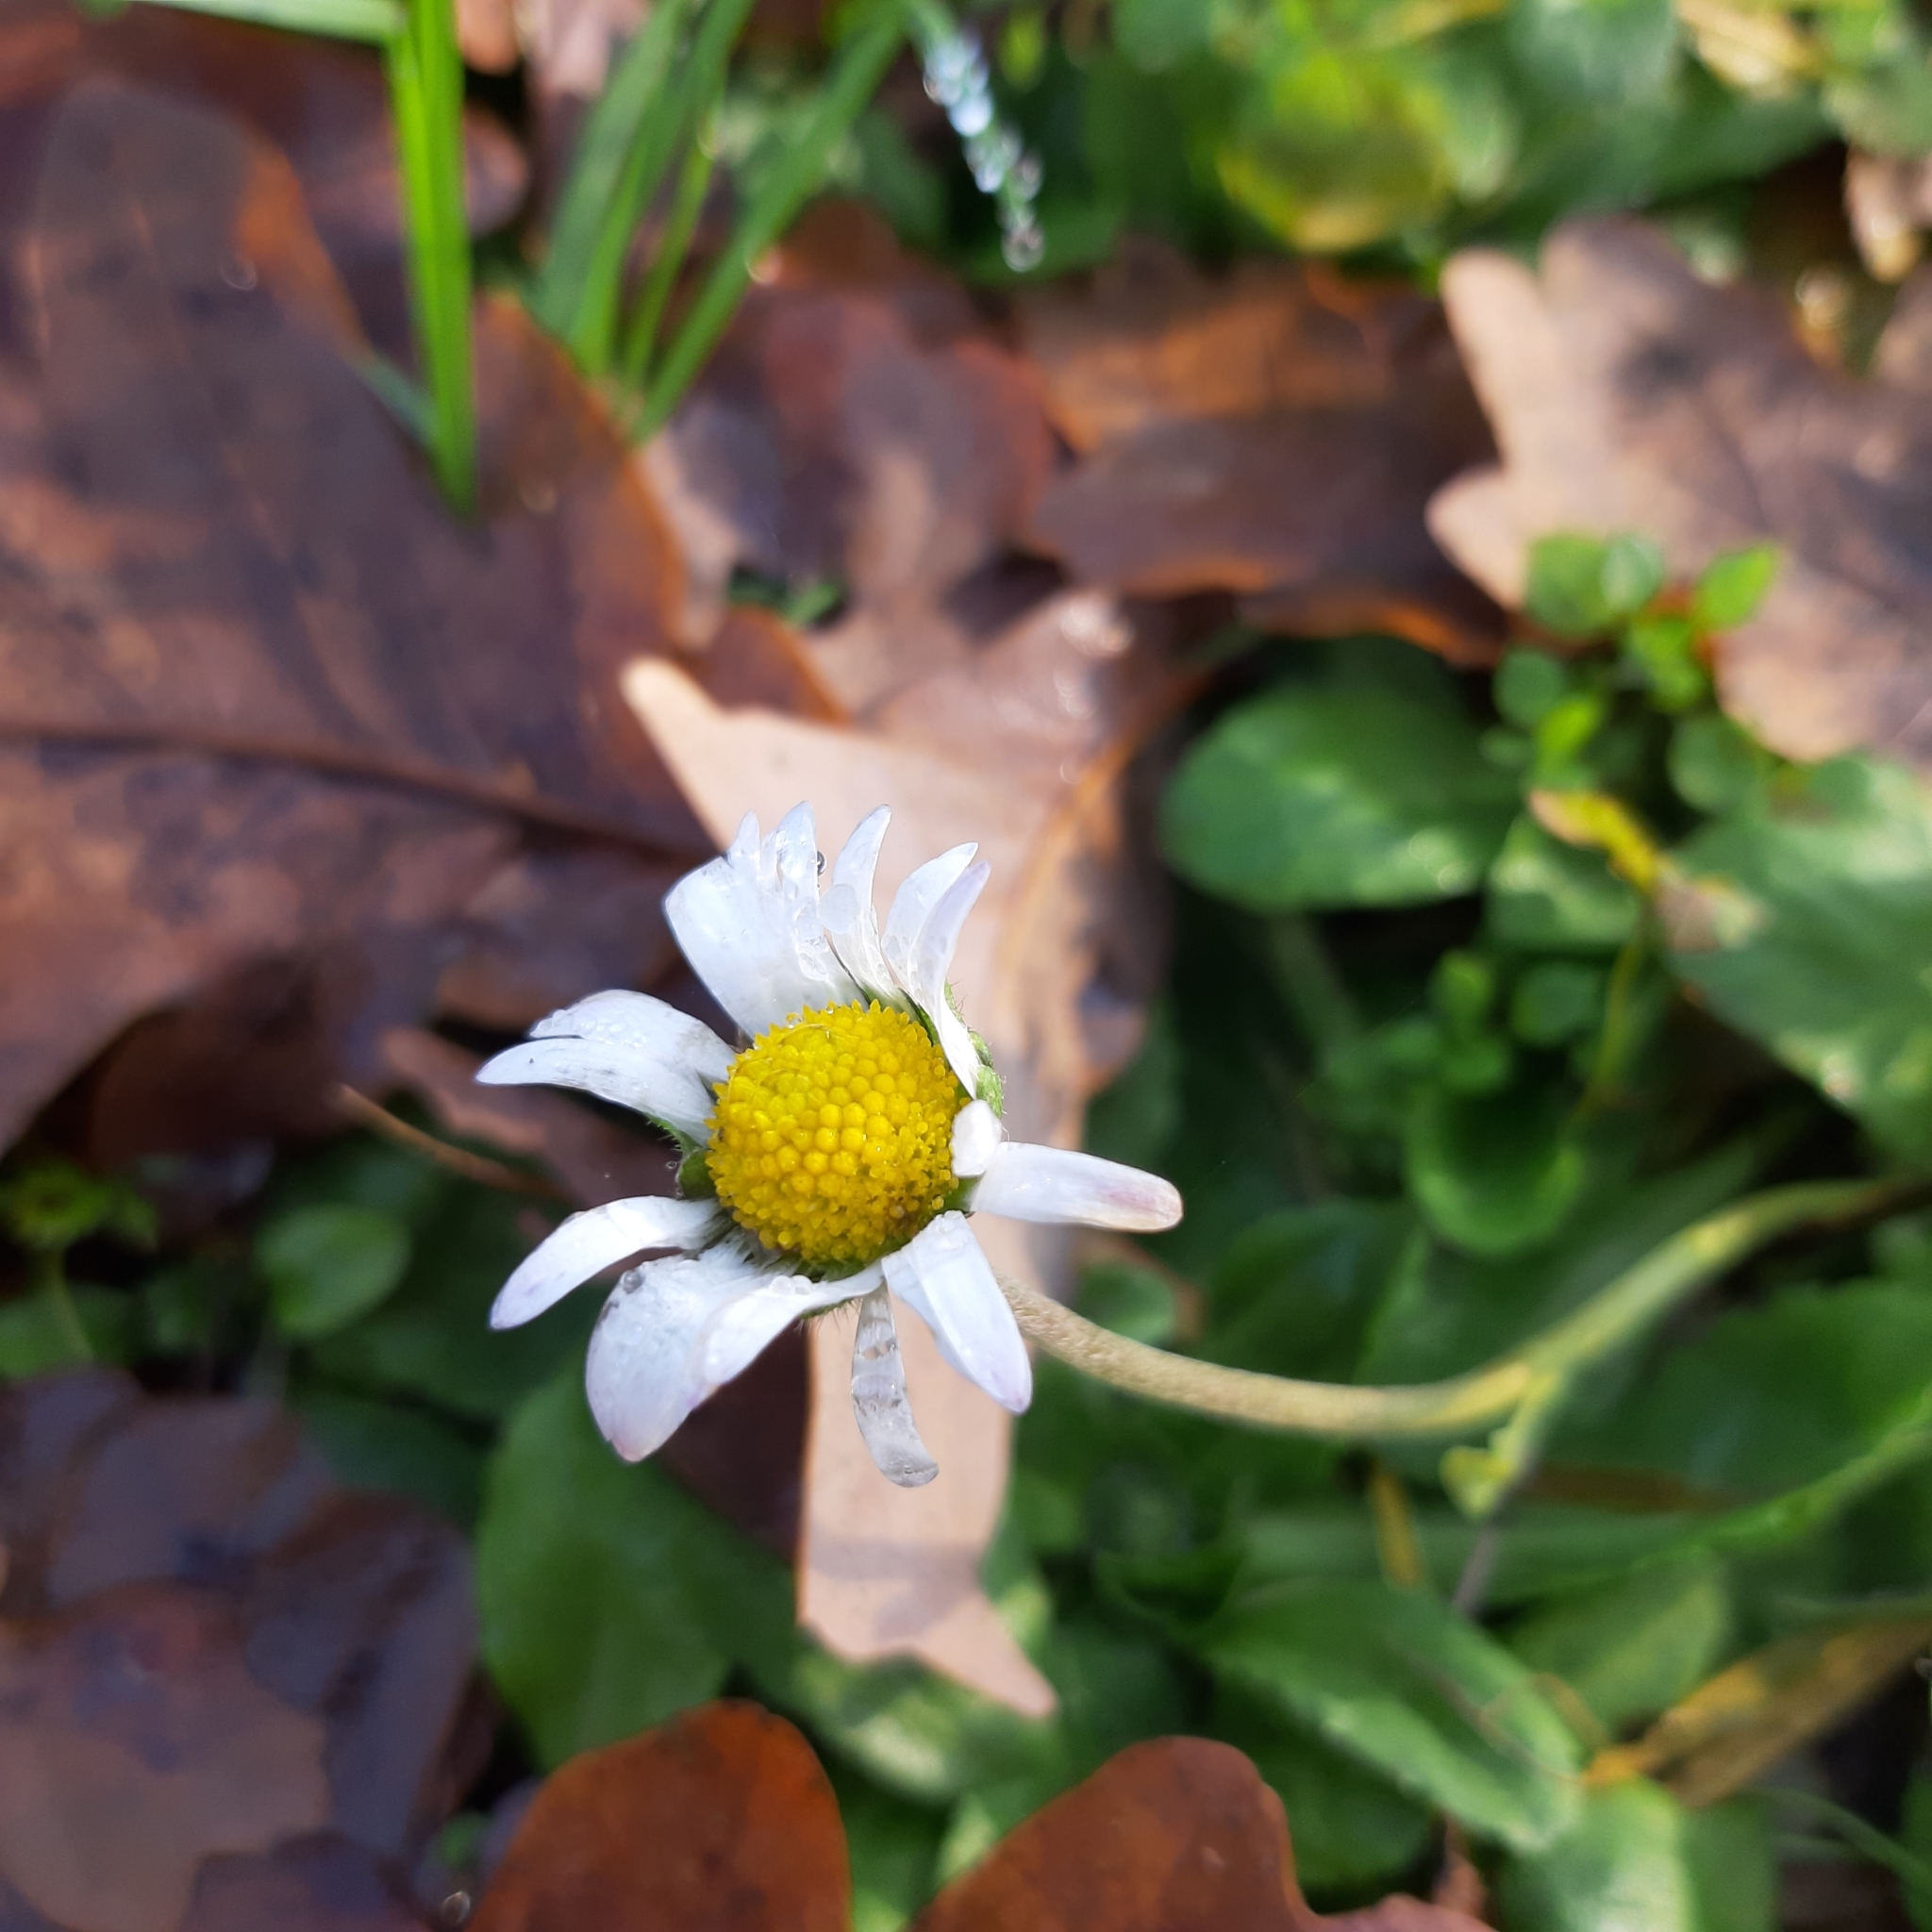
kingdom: Plantae
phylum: Tracheophyta
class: Magnoliopsida
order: Asterales
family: Asteraceae
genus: Bellis
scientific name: Bellis perennis
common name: Lawndaisy
